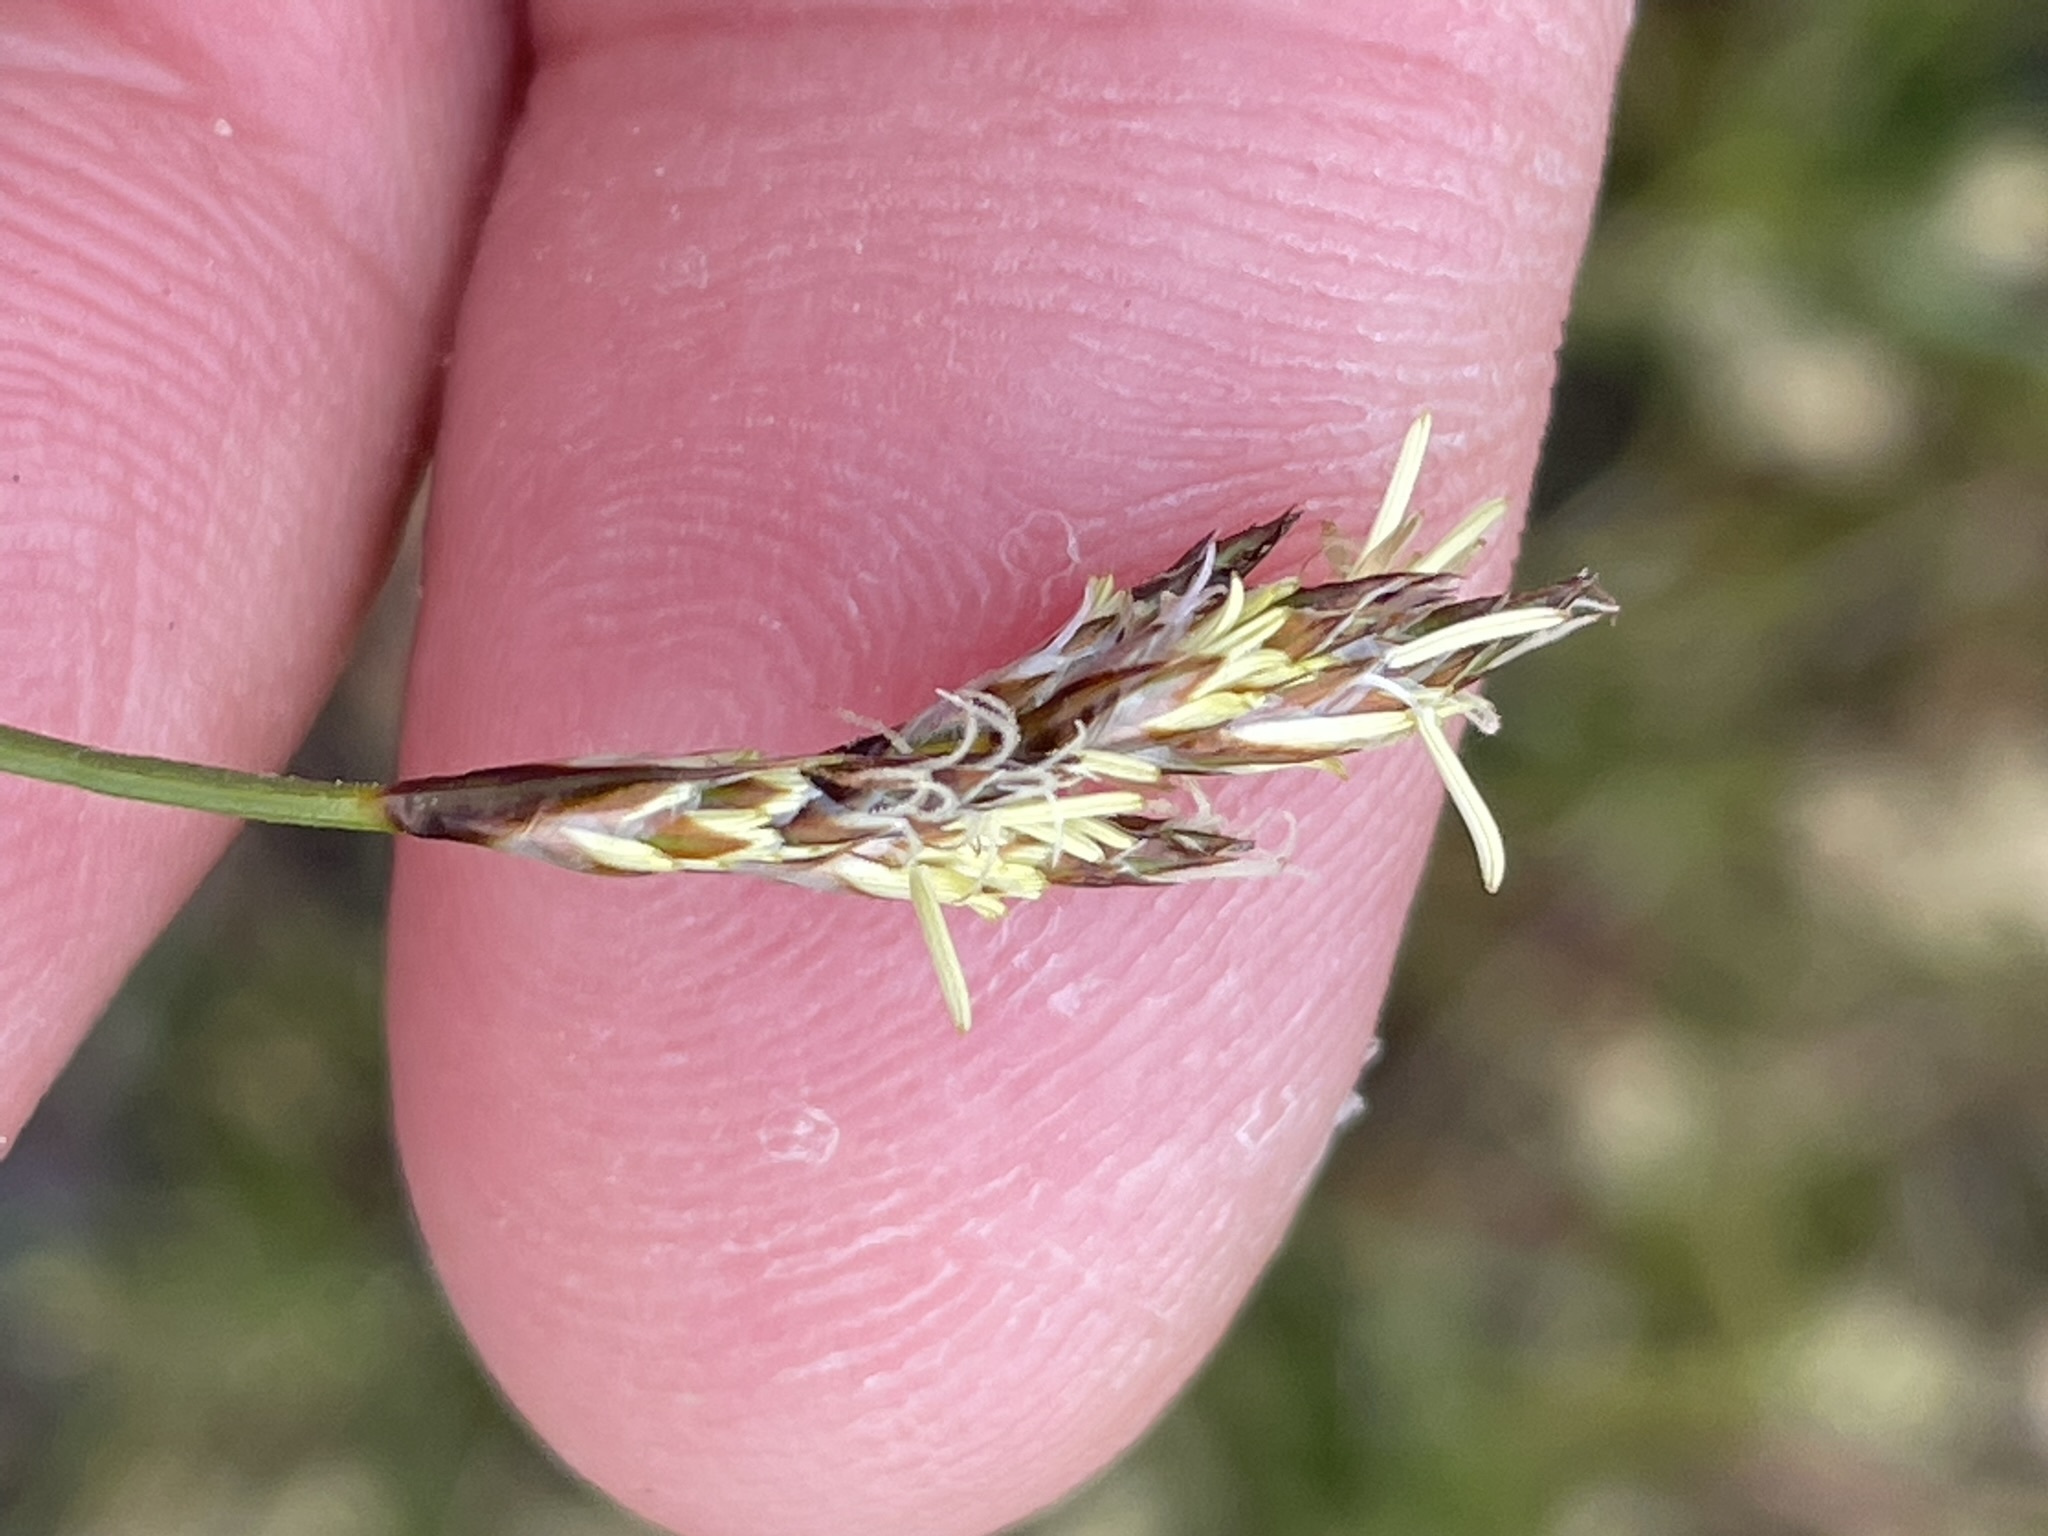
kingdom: Plantae
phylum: Tracheophyta
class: Liliopsida
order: Poales
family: Cyperaceae
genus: Carex
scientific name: Carex praecox
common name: Early sedge
